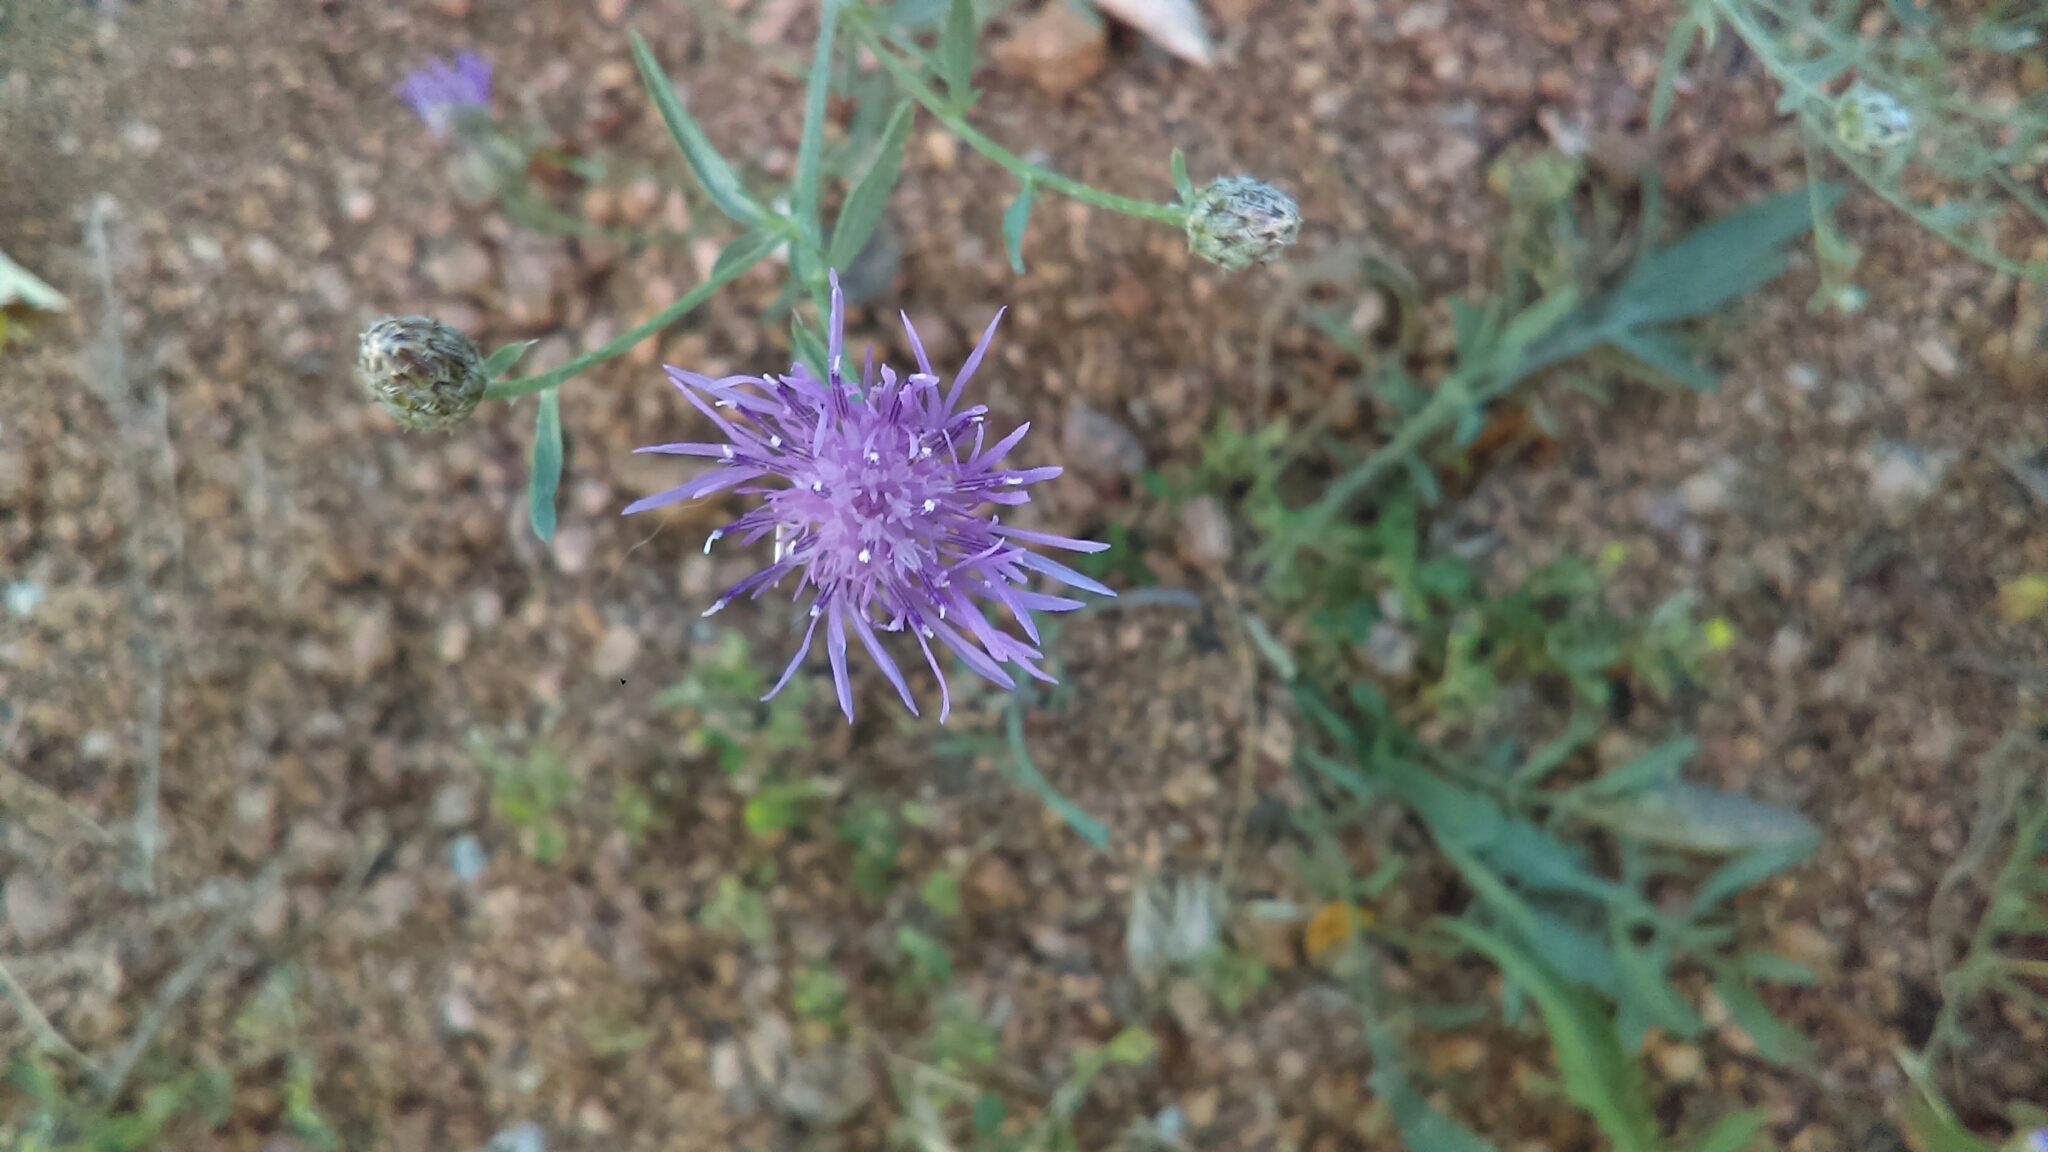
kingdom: Plantae
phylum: Tracheophyta
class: Magnoliopsida
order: Asterales
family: Asteraceae
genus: Centaurea
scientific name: Centaurea stoebe
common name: Spotted knapweed
